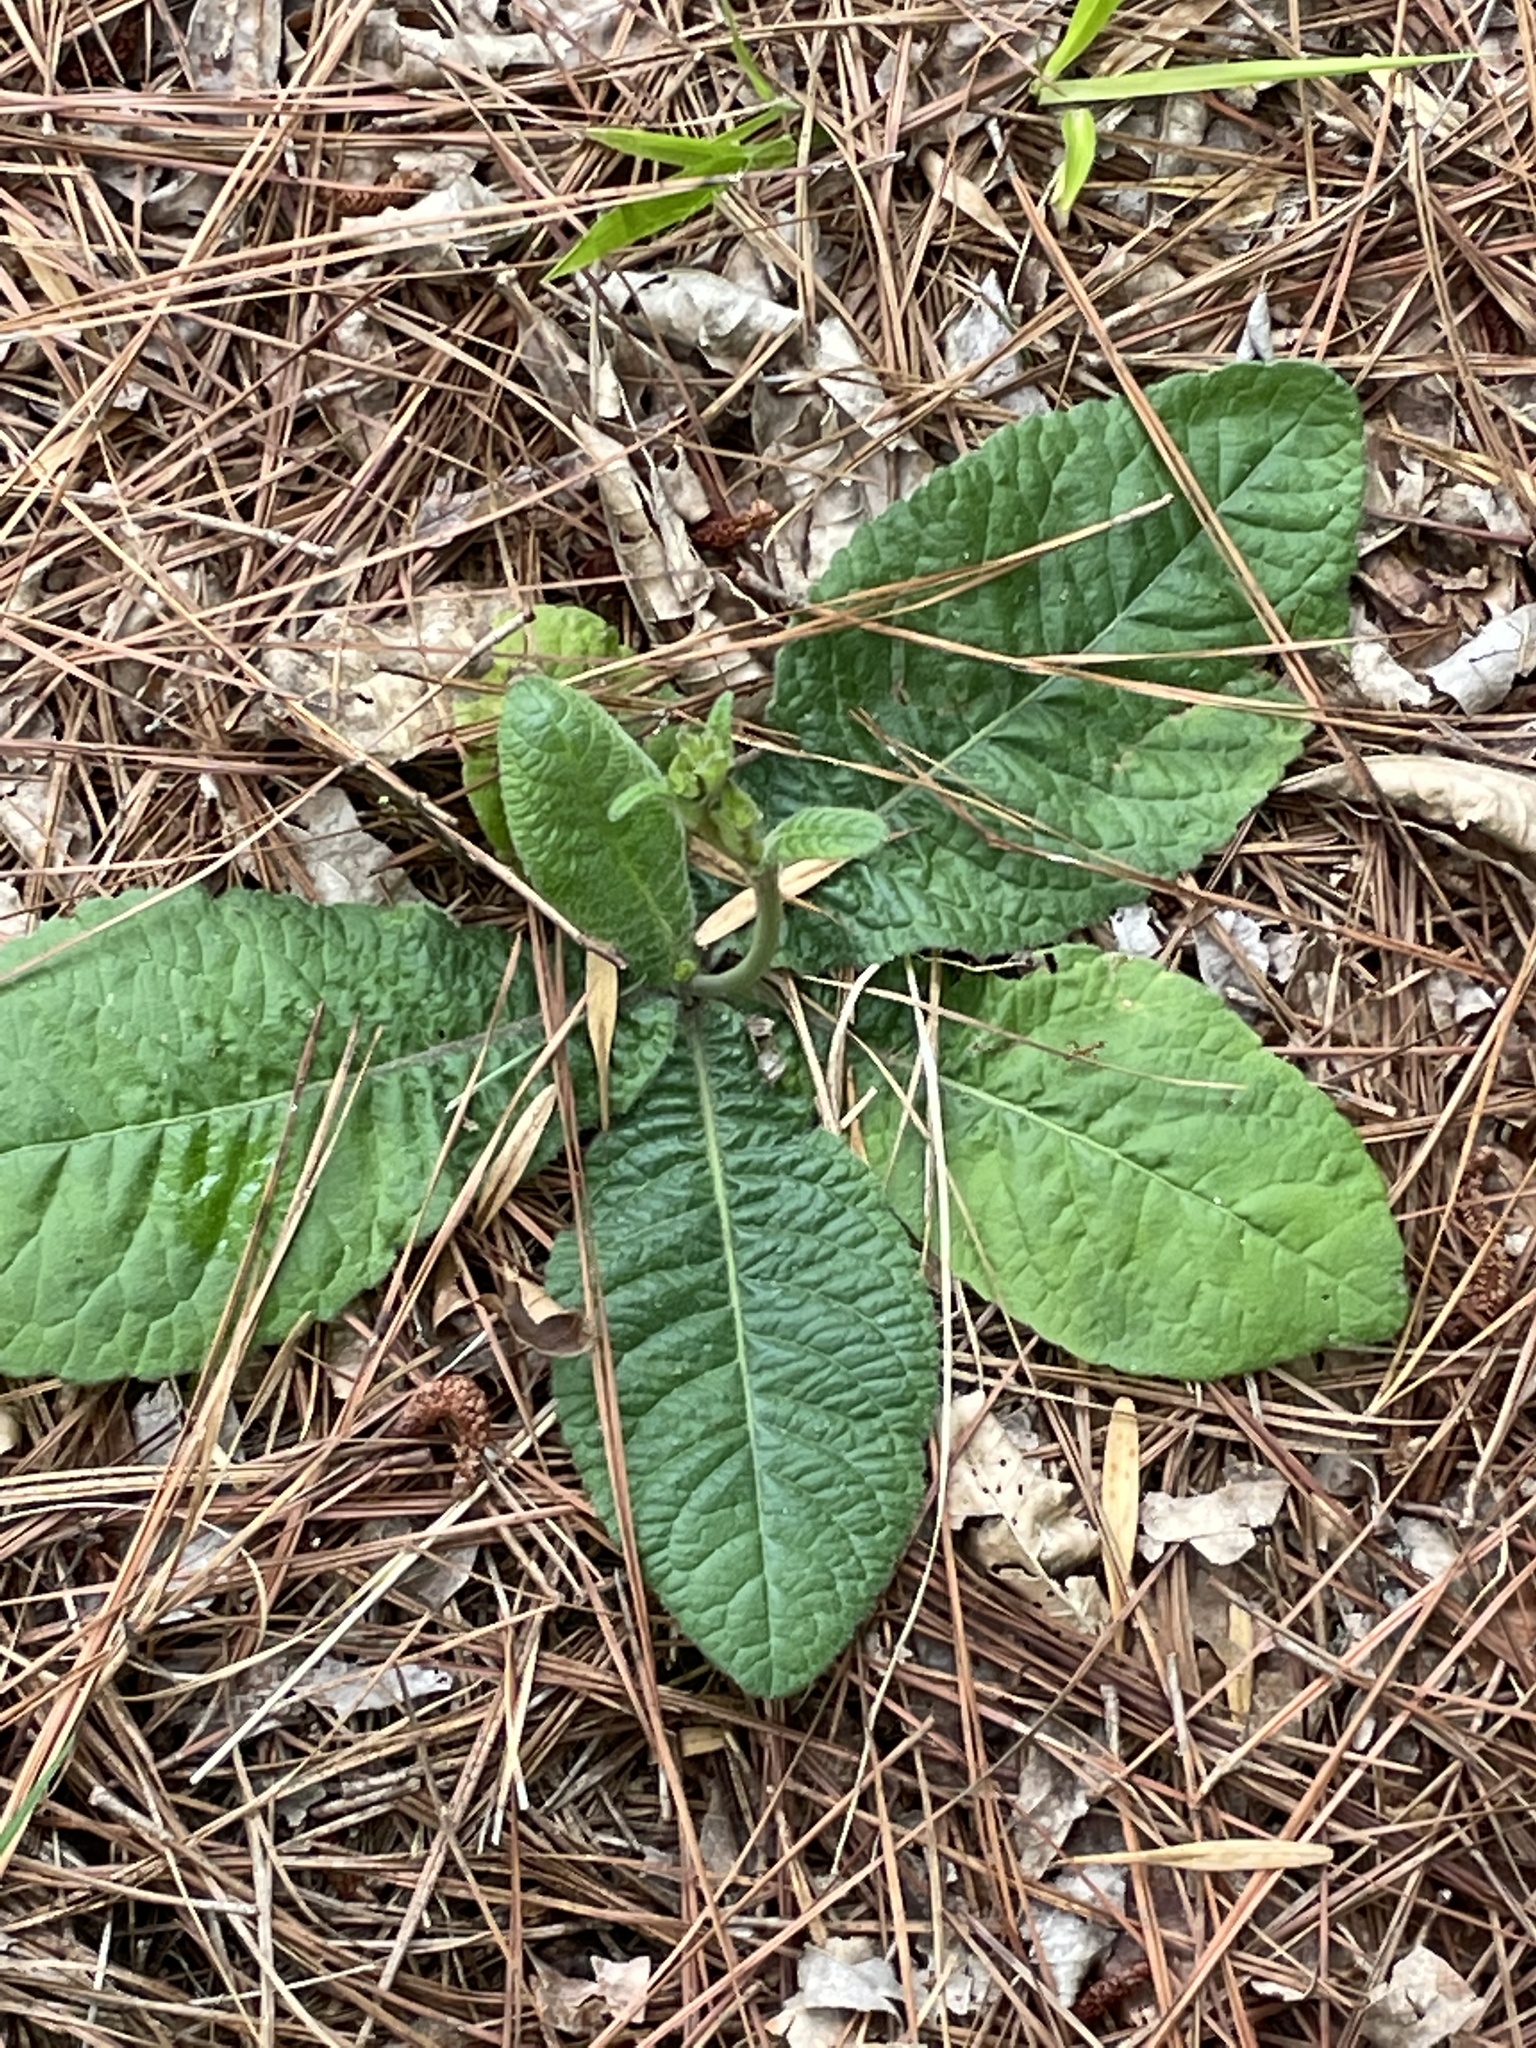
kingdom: Plantae
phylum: Tracheophyta
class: Magnoliopsida
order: Asterales
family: Asteraceae
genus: Elephantopus
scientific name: Elephantopus tomentosus
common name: Tobacco-weed
